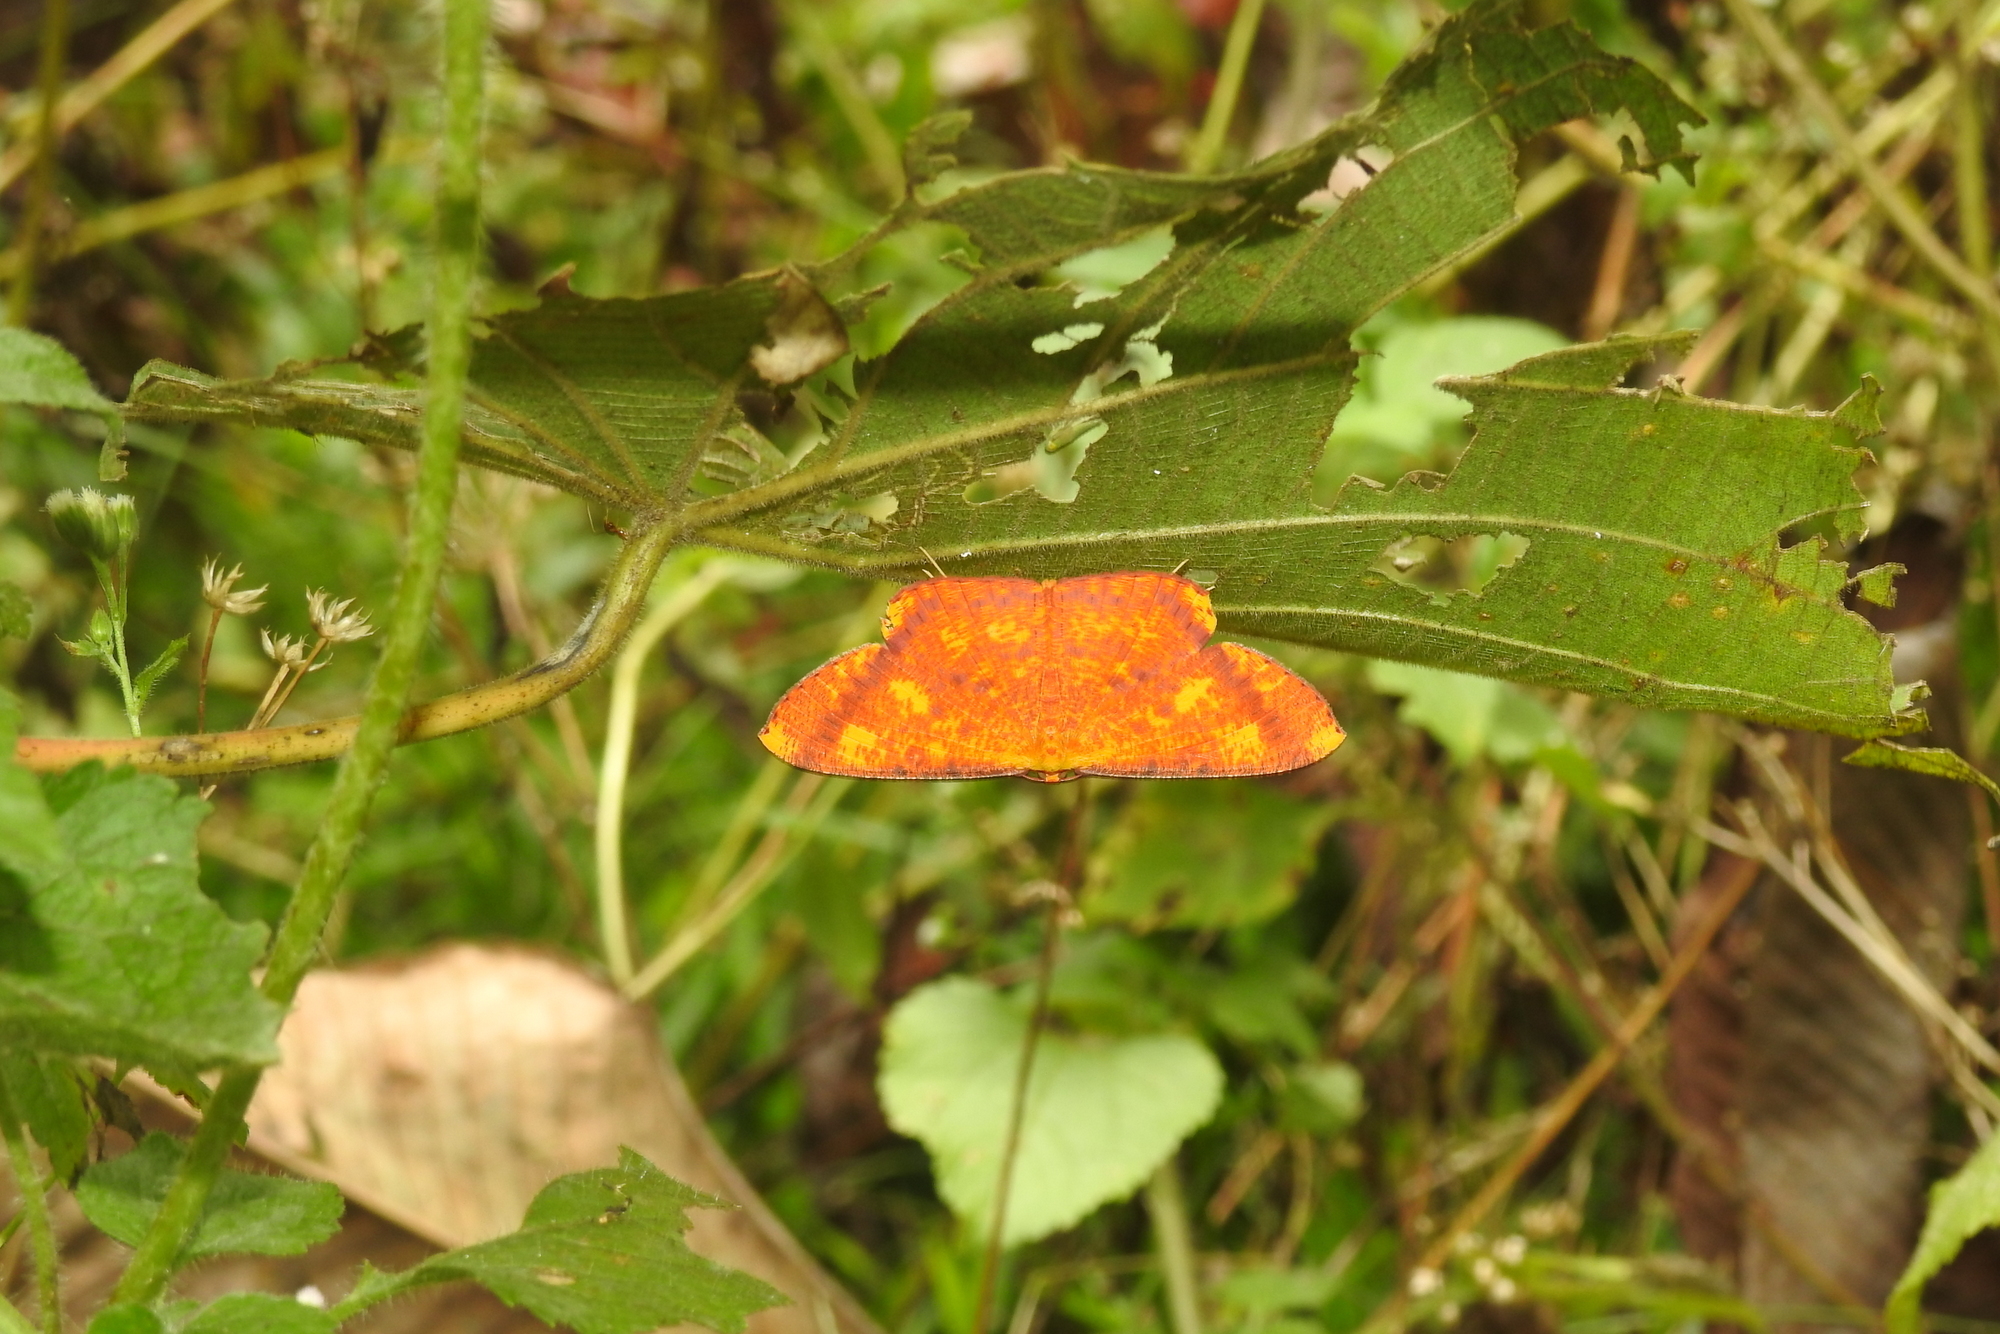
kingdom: Animalia
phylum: Arthropoda
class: Insecta
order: Lepidoptera
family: Geometridae
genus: Eumelea
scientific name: Eumelea ludovicata
